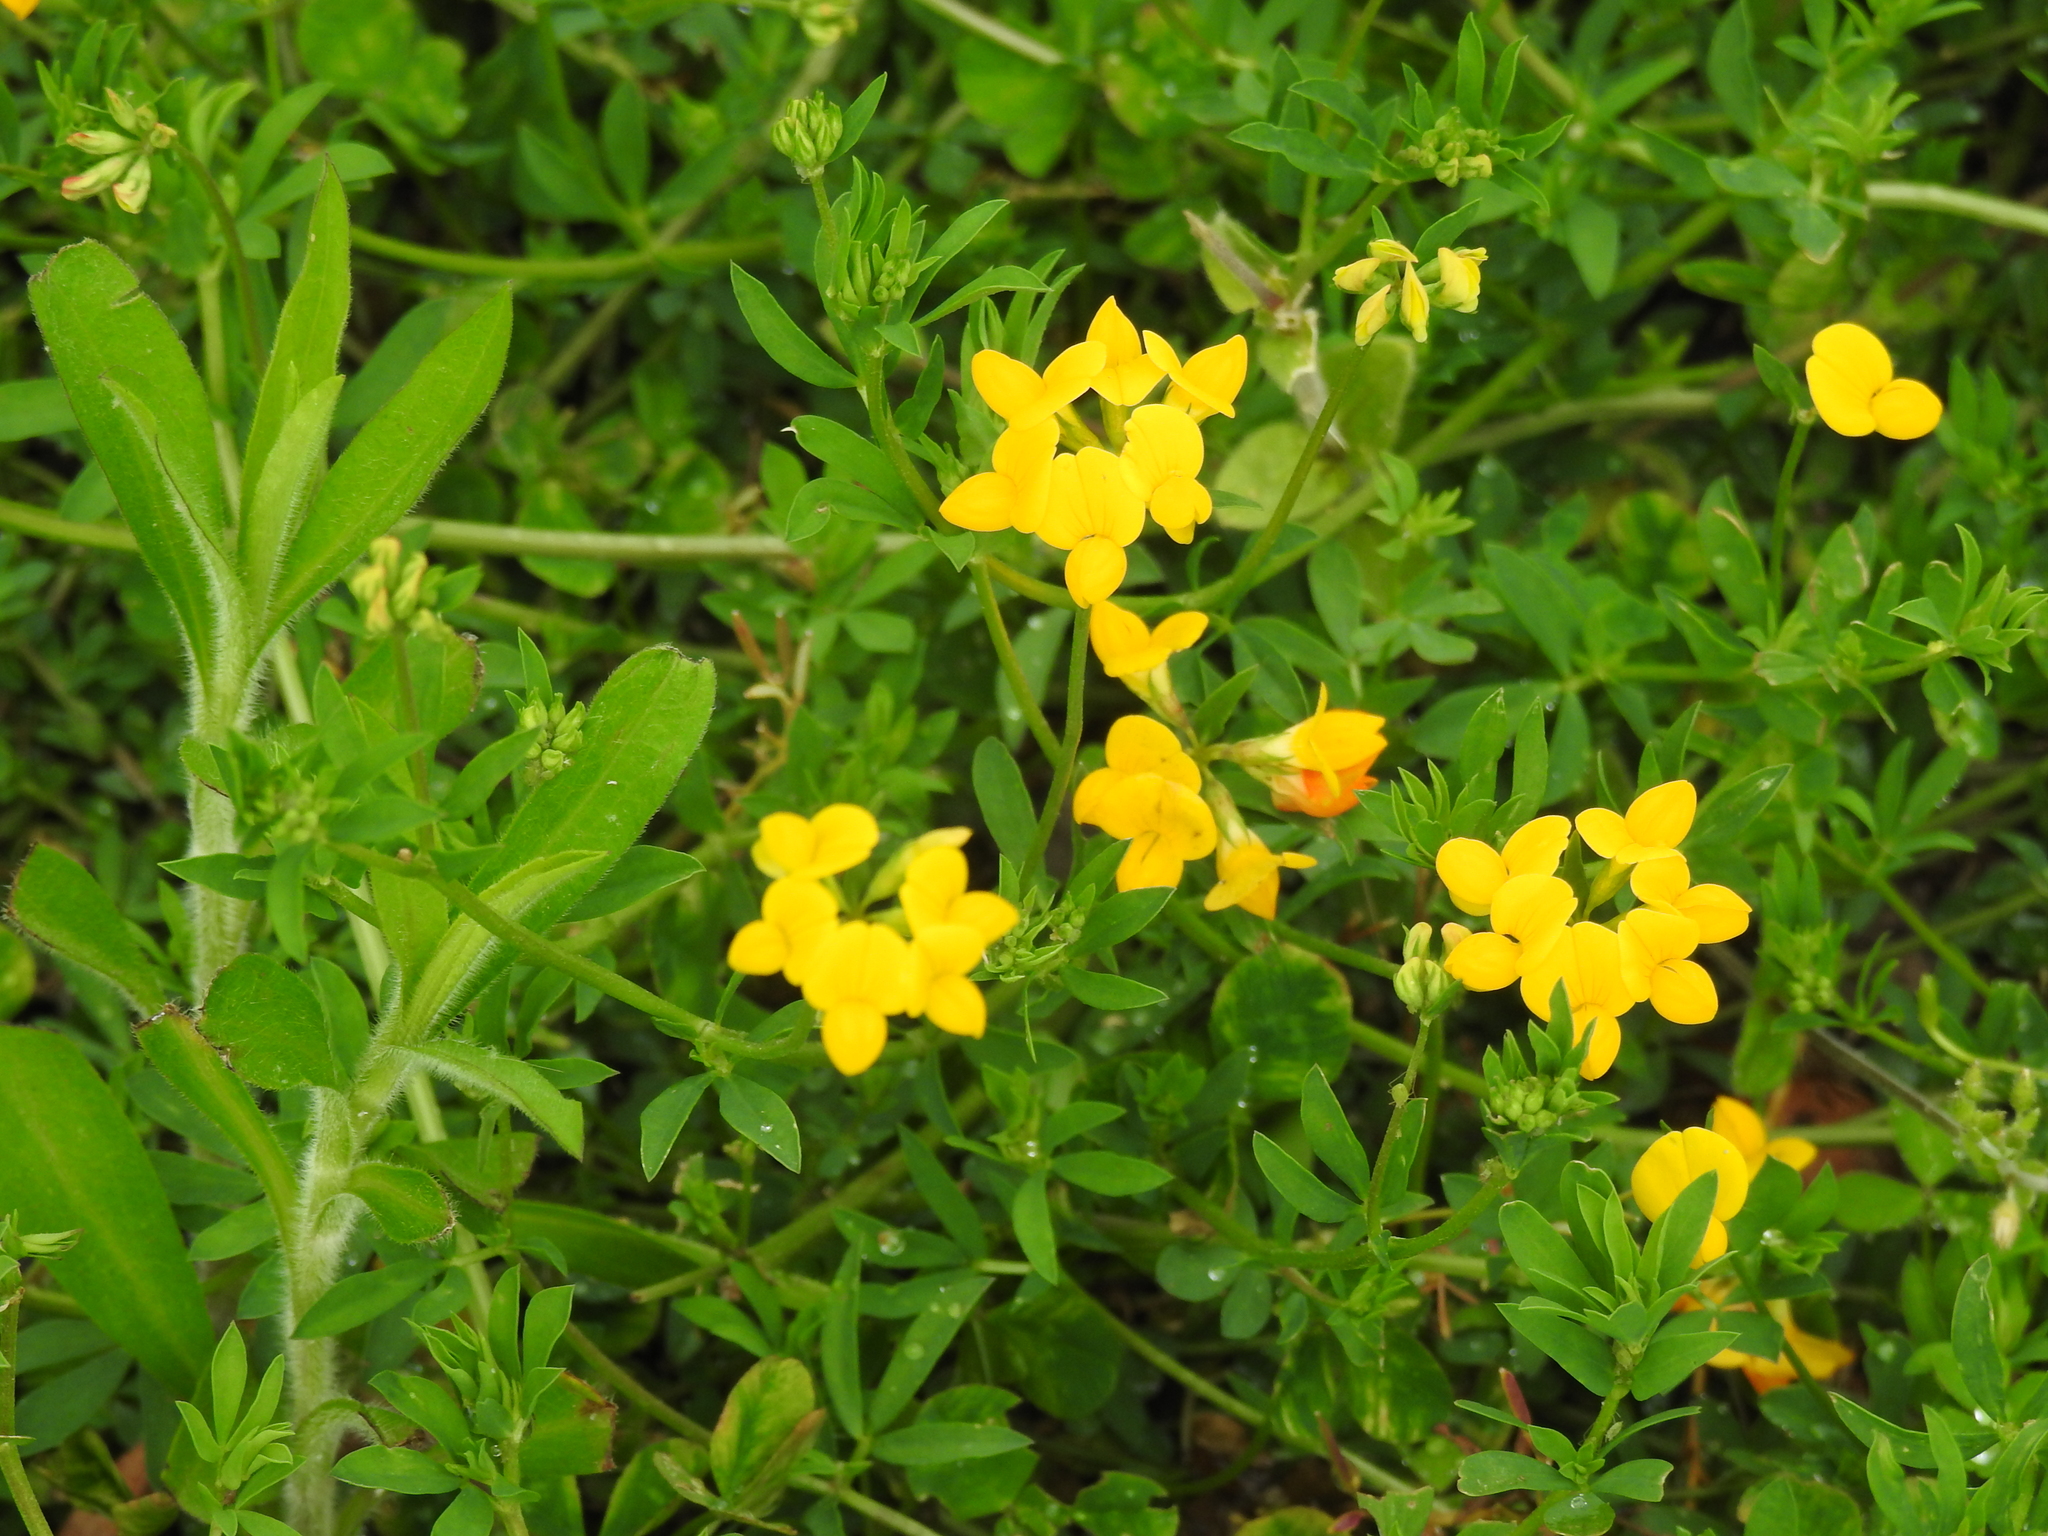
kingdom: Plantae
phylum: Tracheophyta
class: Magnoliopsida
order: Fabales
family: Fabaceae
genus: Lotus
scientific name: Lotus corniculatus
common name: Common bird's-foot-trefoil
